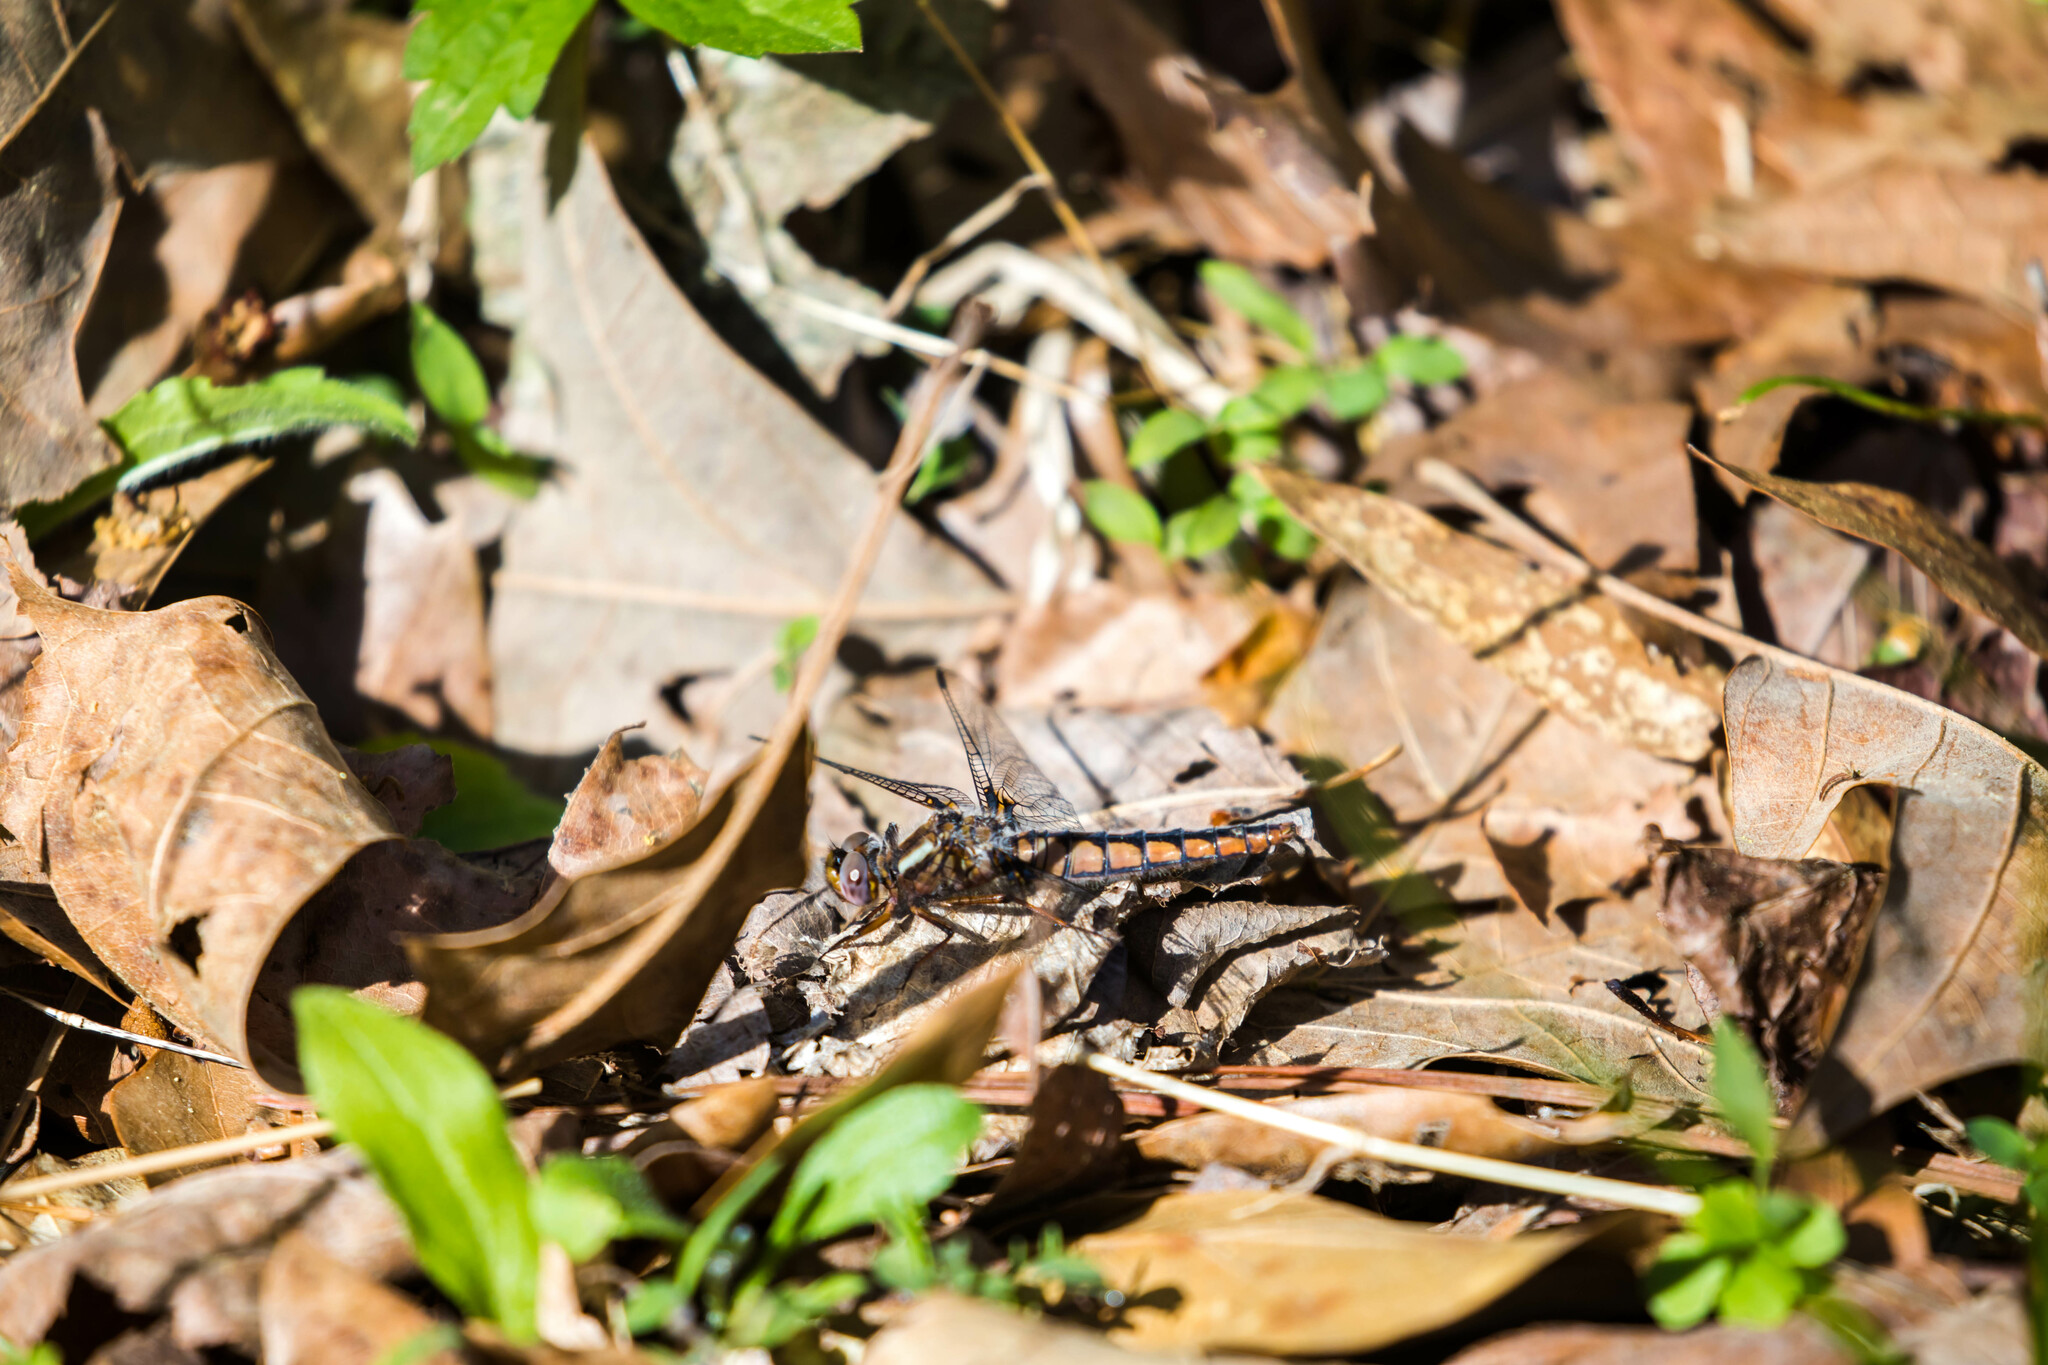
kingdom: Animalia
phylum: Arthropoda
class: Insecta
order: Odonata
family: Libellulidae
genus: Ladona
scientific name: Ladona deplanata
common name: Blue corporal
